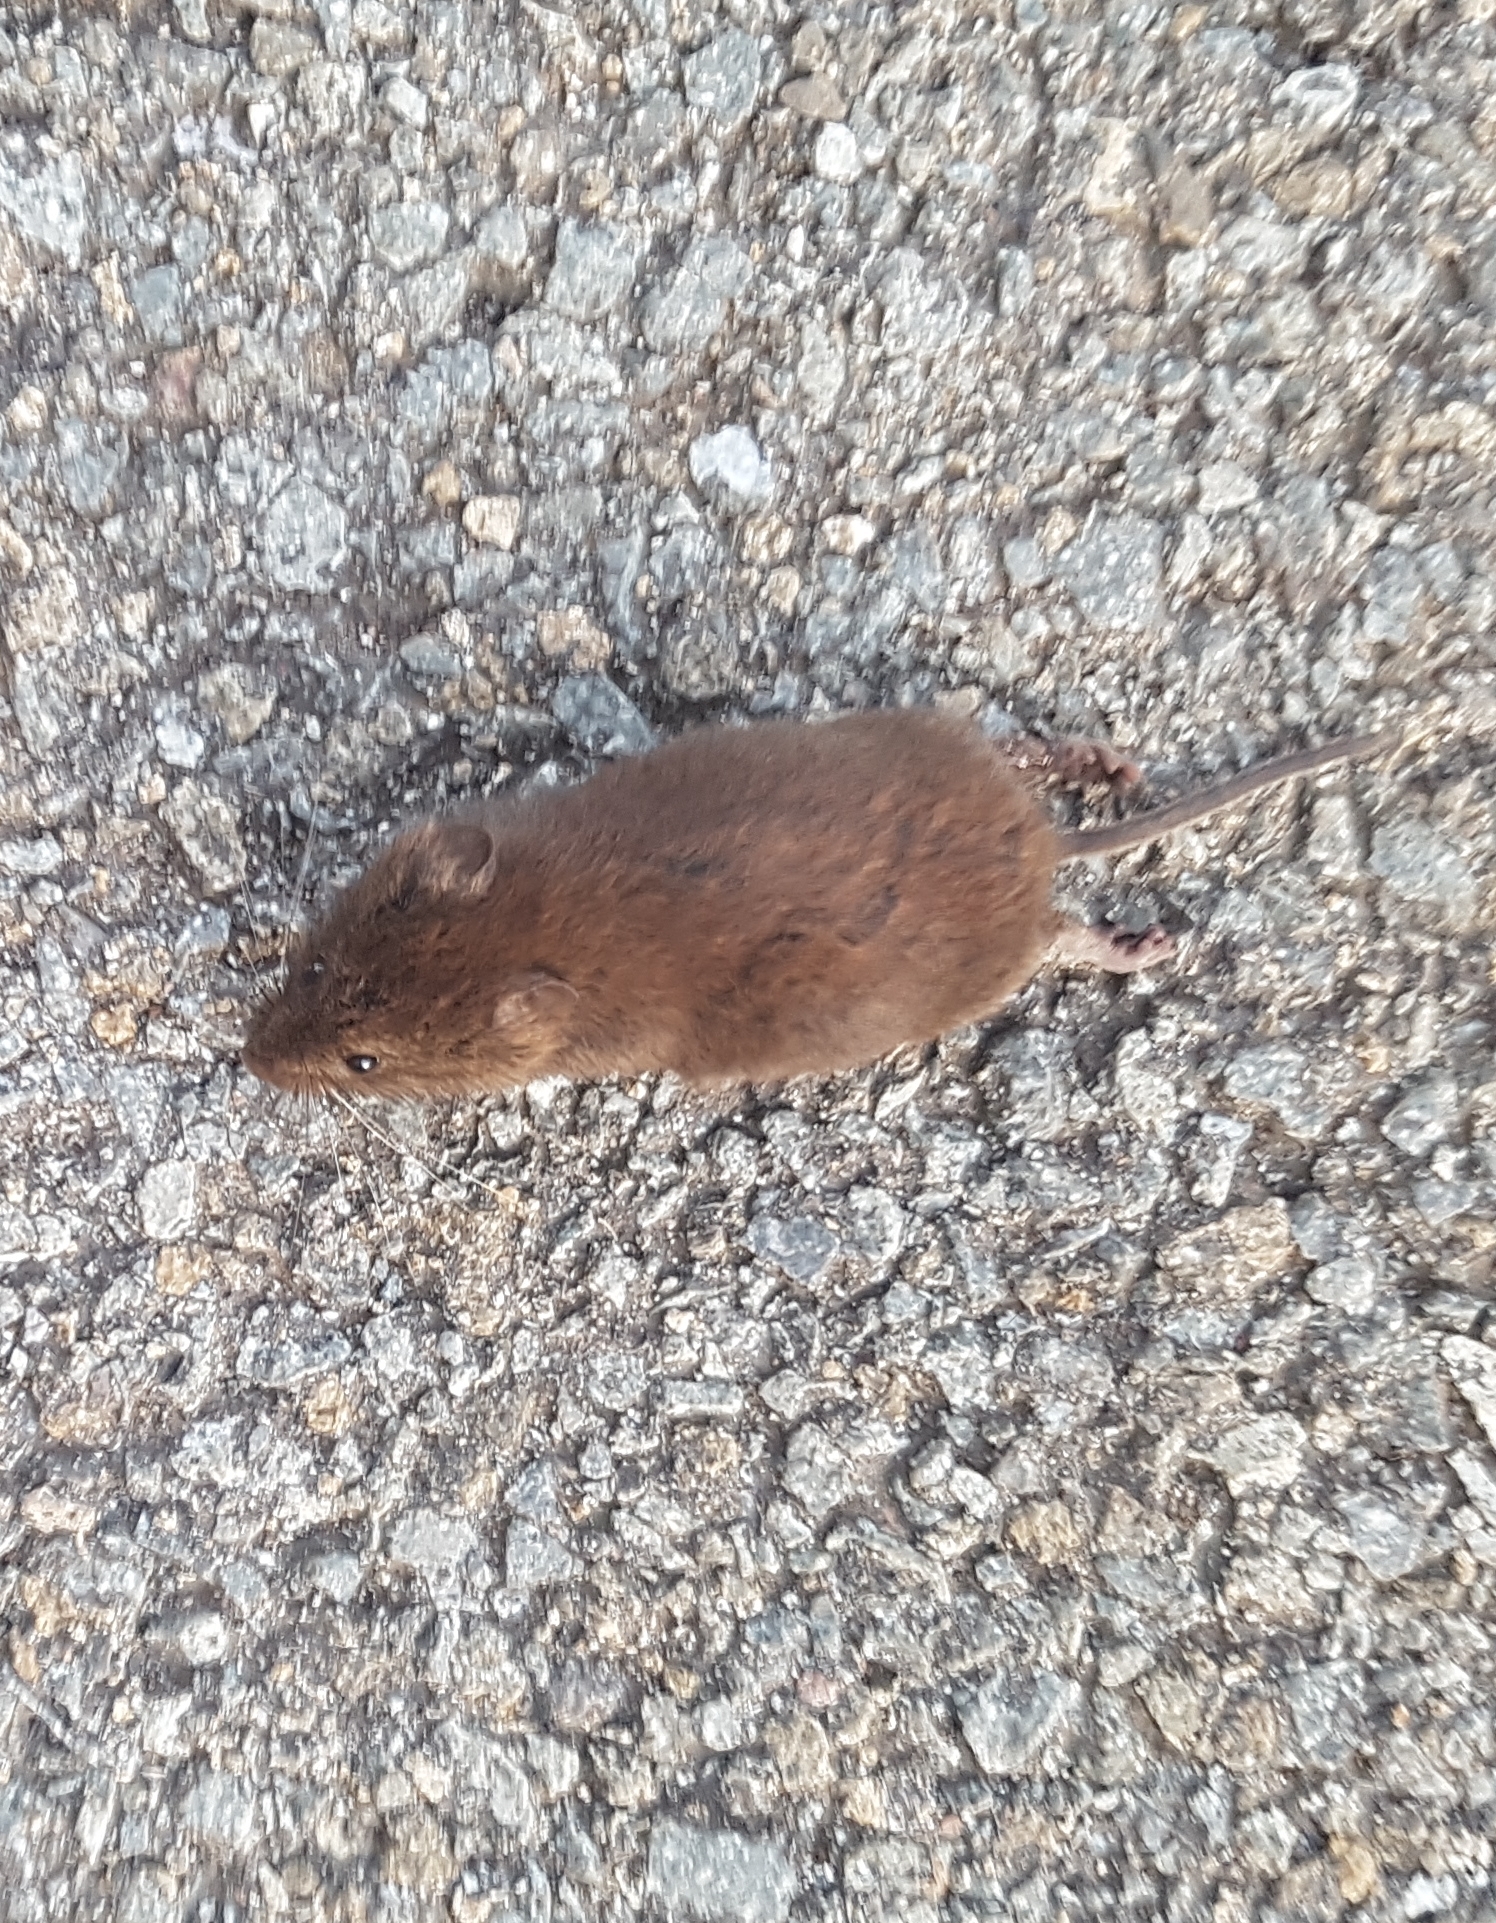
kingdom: Animalia
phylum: Chordata
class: Mammalia
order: Rodentia
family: Cricetidae
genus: Myodes
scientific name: Myodes glareolus
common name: Bank vole
